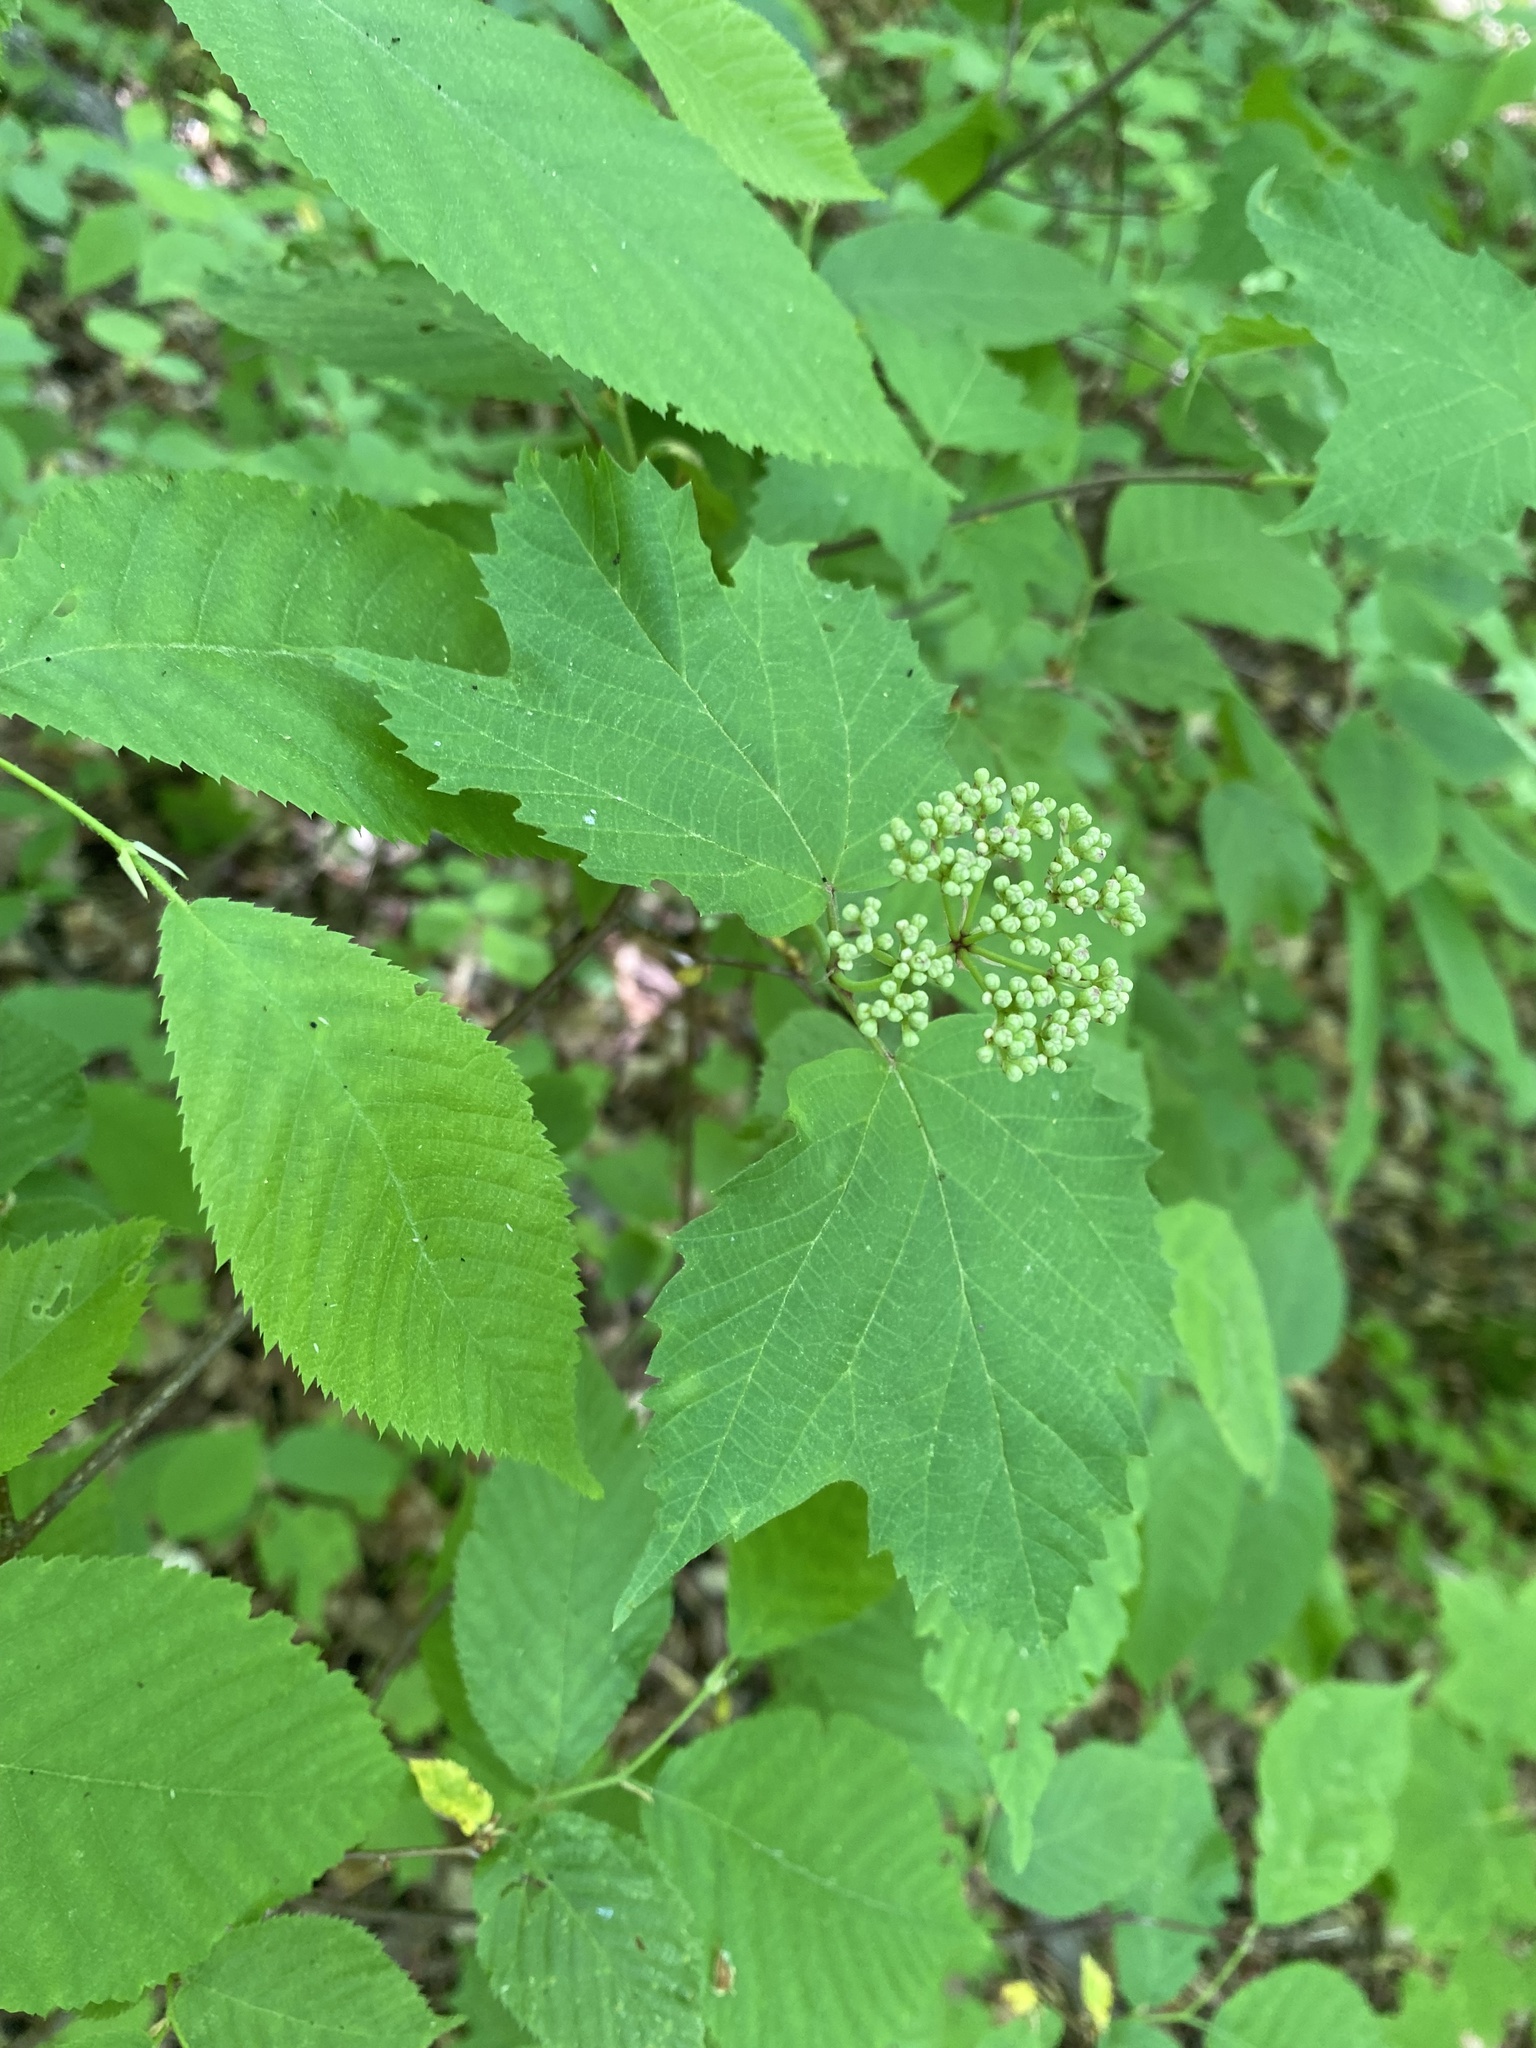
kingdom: Plantae
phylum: Tracheophyta
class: Magnoliopsida
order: Dipsacales
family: Viburnaceae
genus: Viburnum
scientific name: Viburnum acerifolium
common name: Dockmackie
